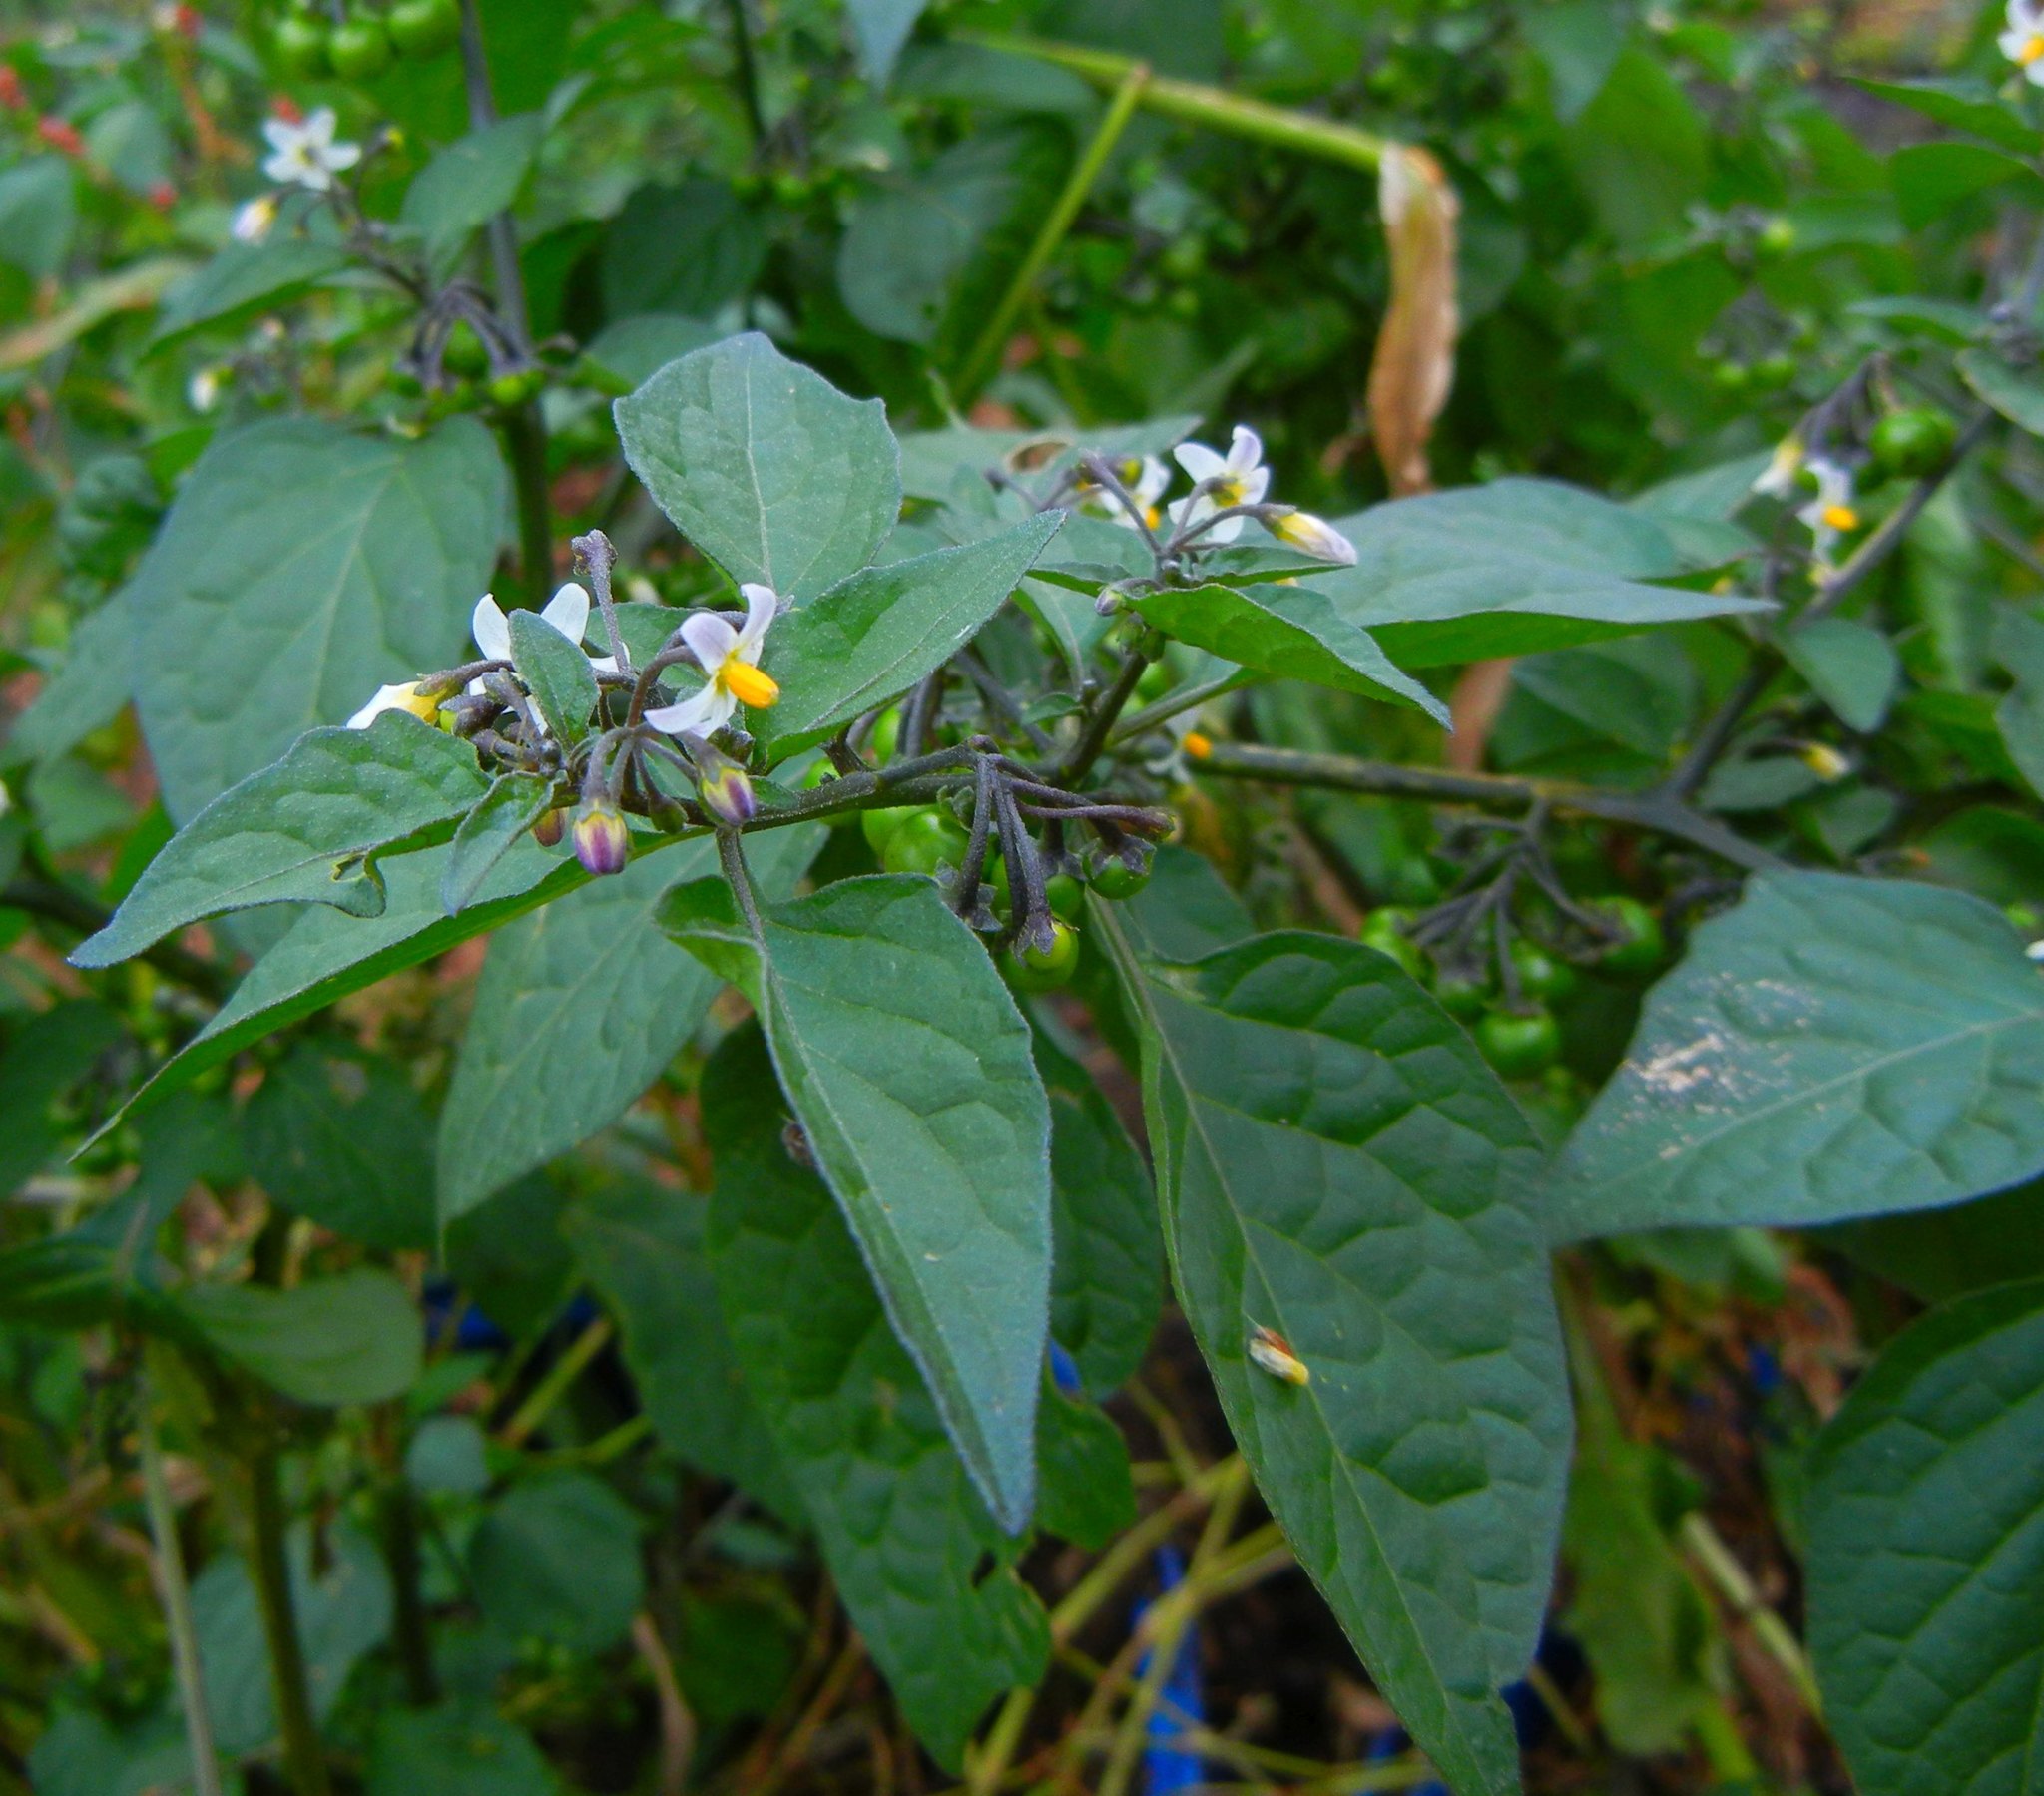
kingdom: Plantae
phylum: Tracheophyta
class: Magnoliopsida
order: Solanales
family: Solanaceae
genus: Solanum
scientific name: Solanum nigrum
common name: Black nightshade
